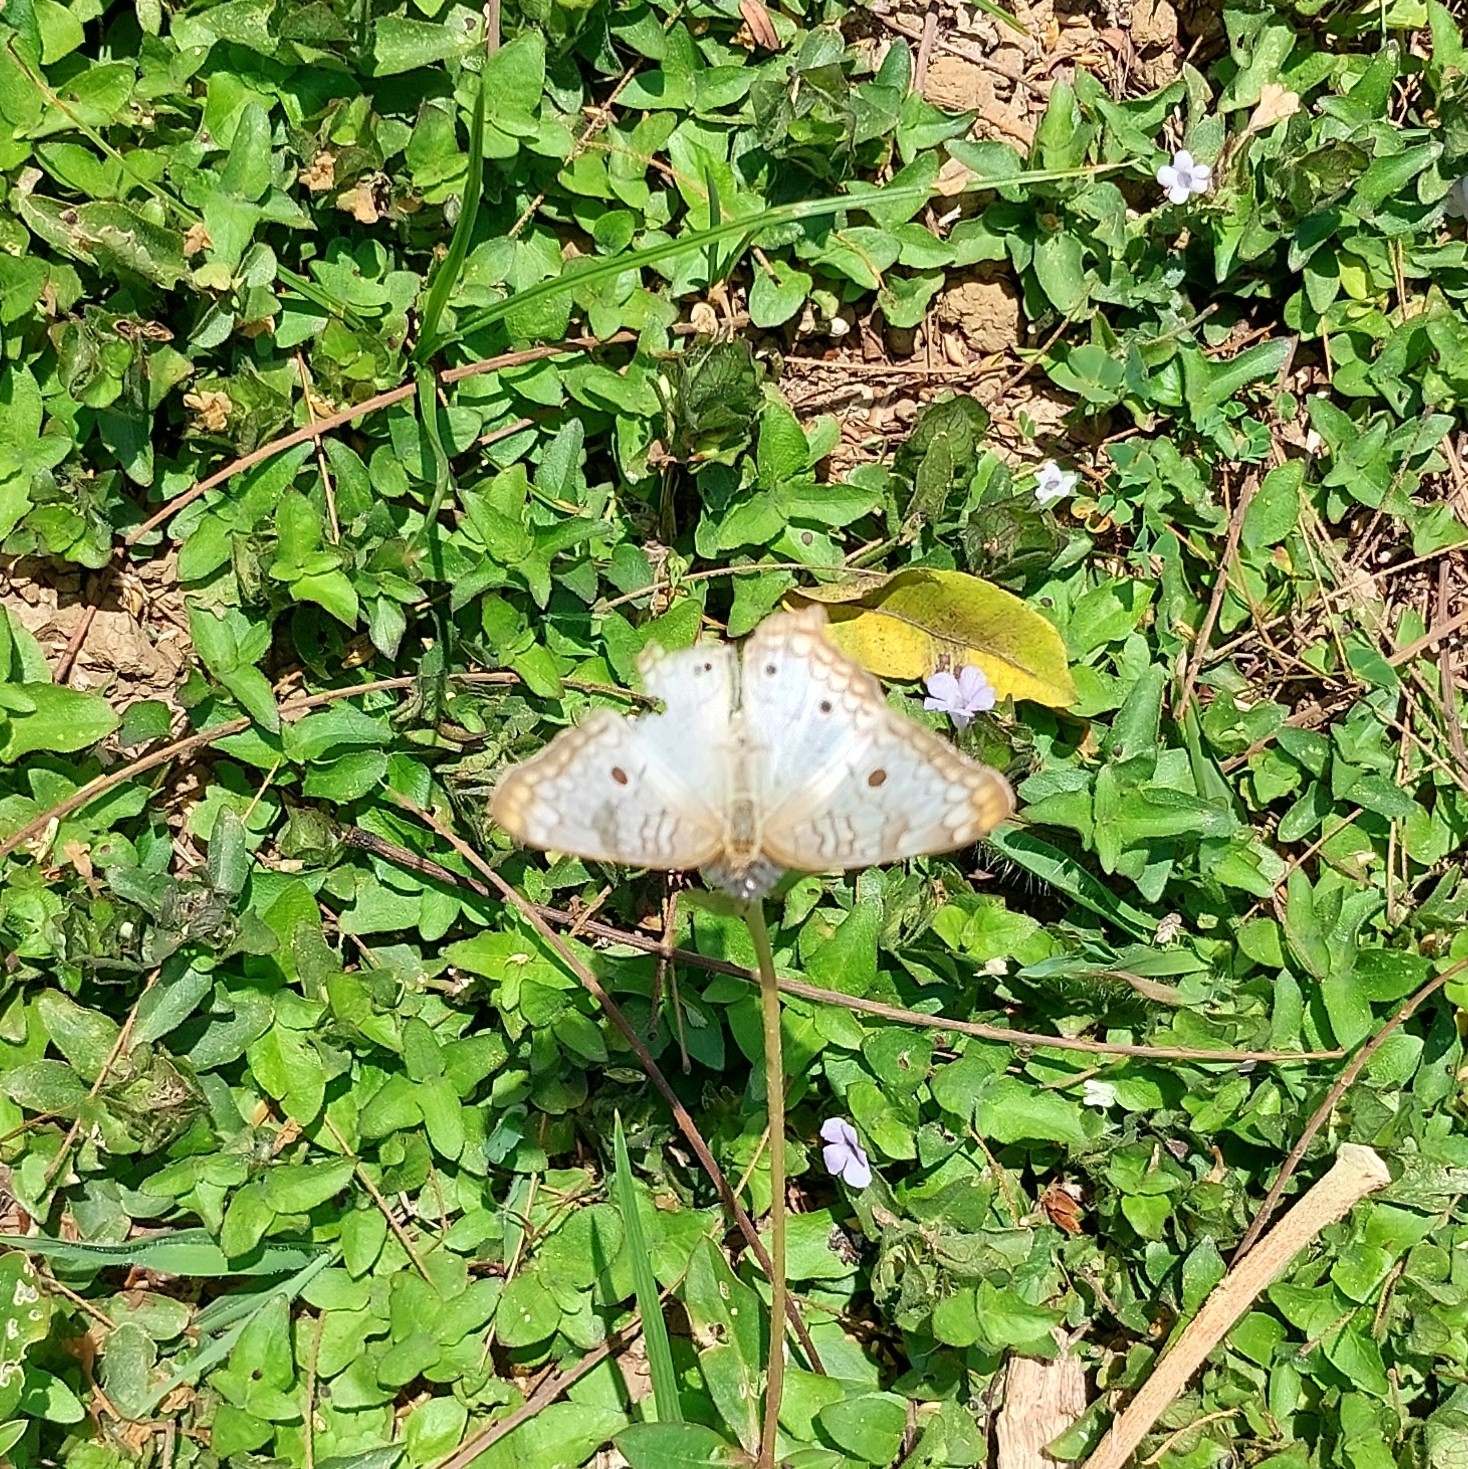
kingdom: Animalia
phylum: Arthropoda
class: Insecta
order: Lepidoptera
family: Nymphalidae
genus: Anartia
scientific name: Anartia jatrophae
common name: White peacock
